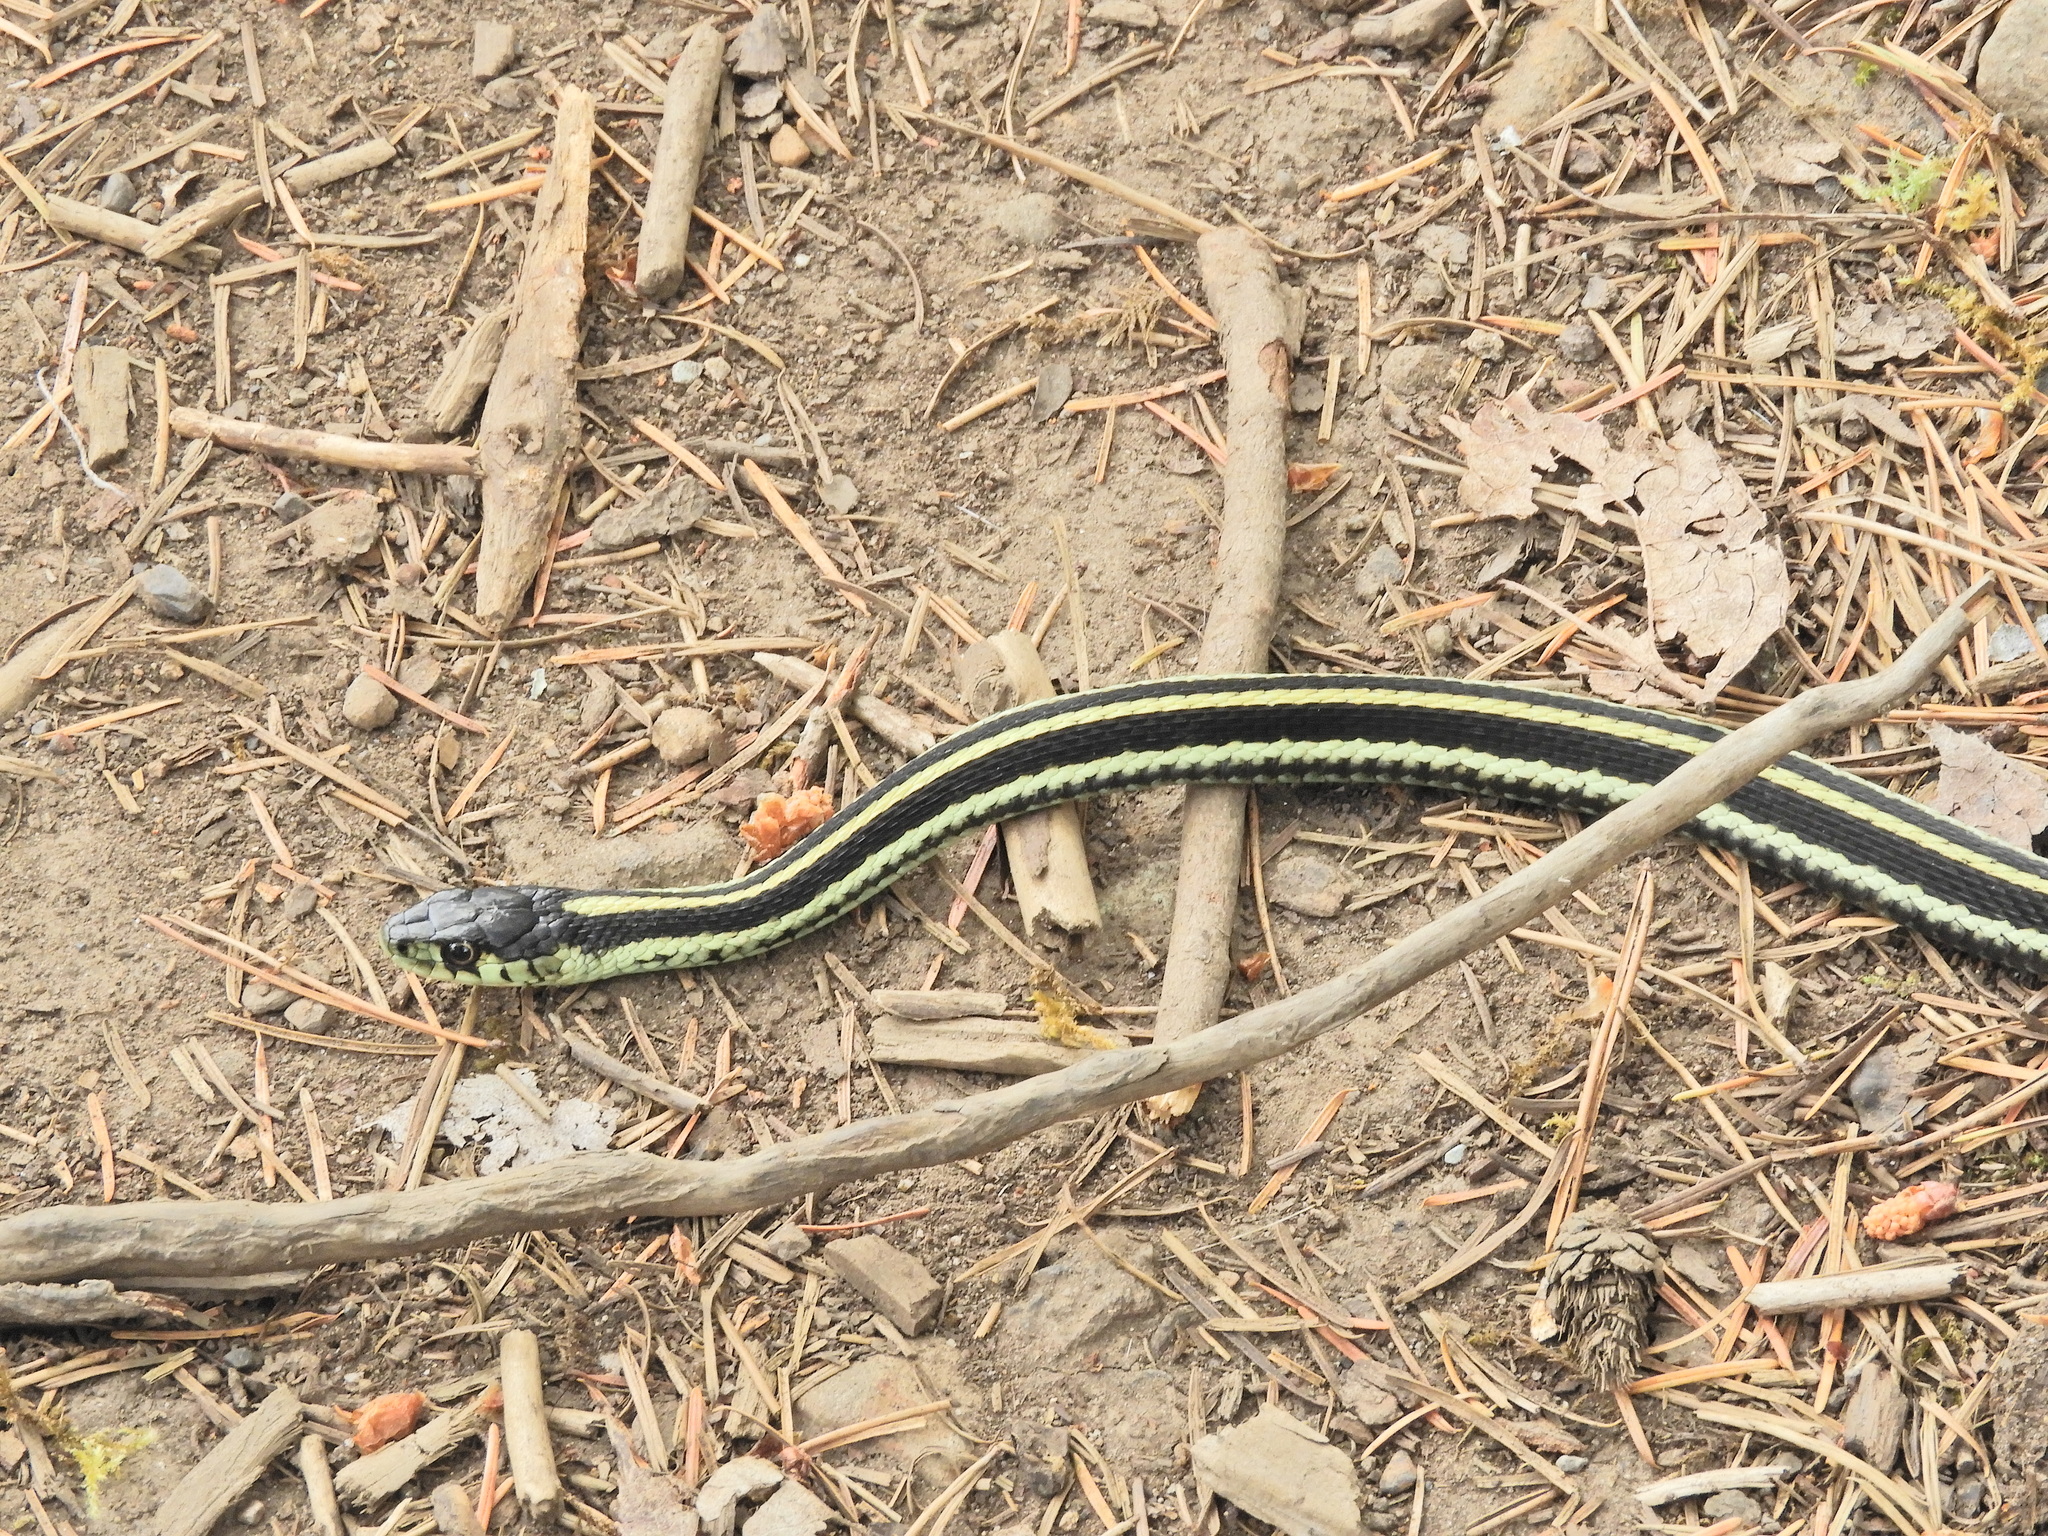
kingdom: Animalia
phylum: Chordata
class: Squamata
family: Colubridae
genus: Thamnophis
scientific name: Thamnophis sirtalis
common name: Common garter snake
